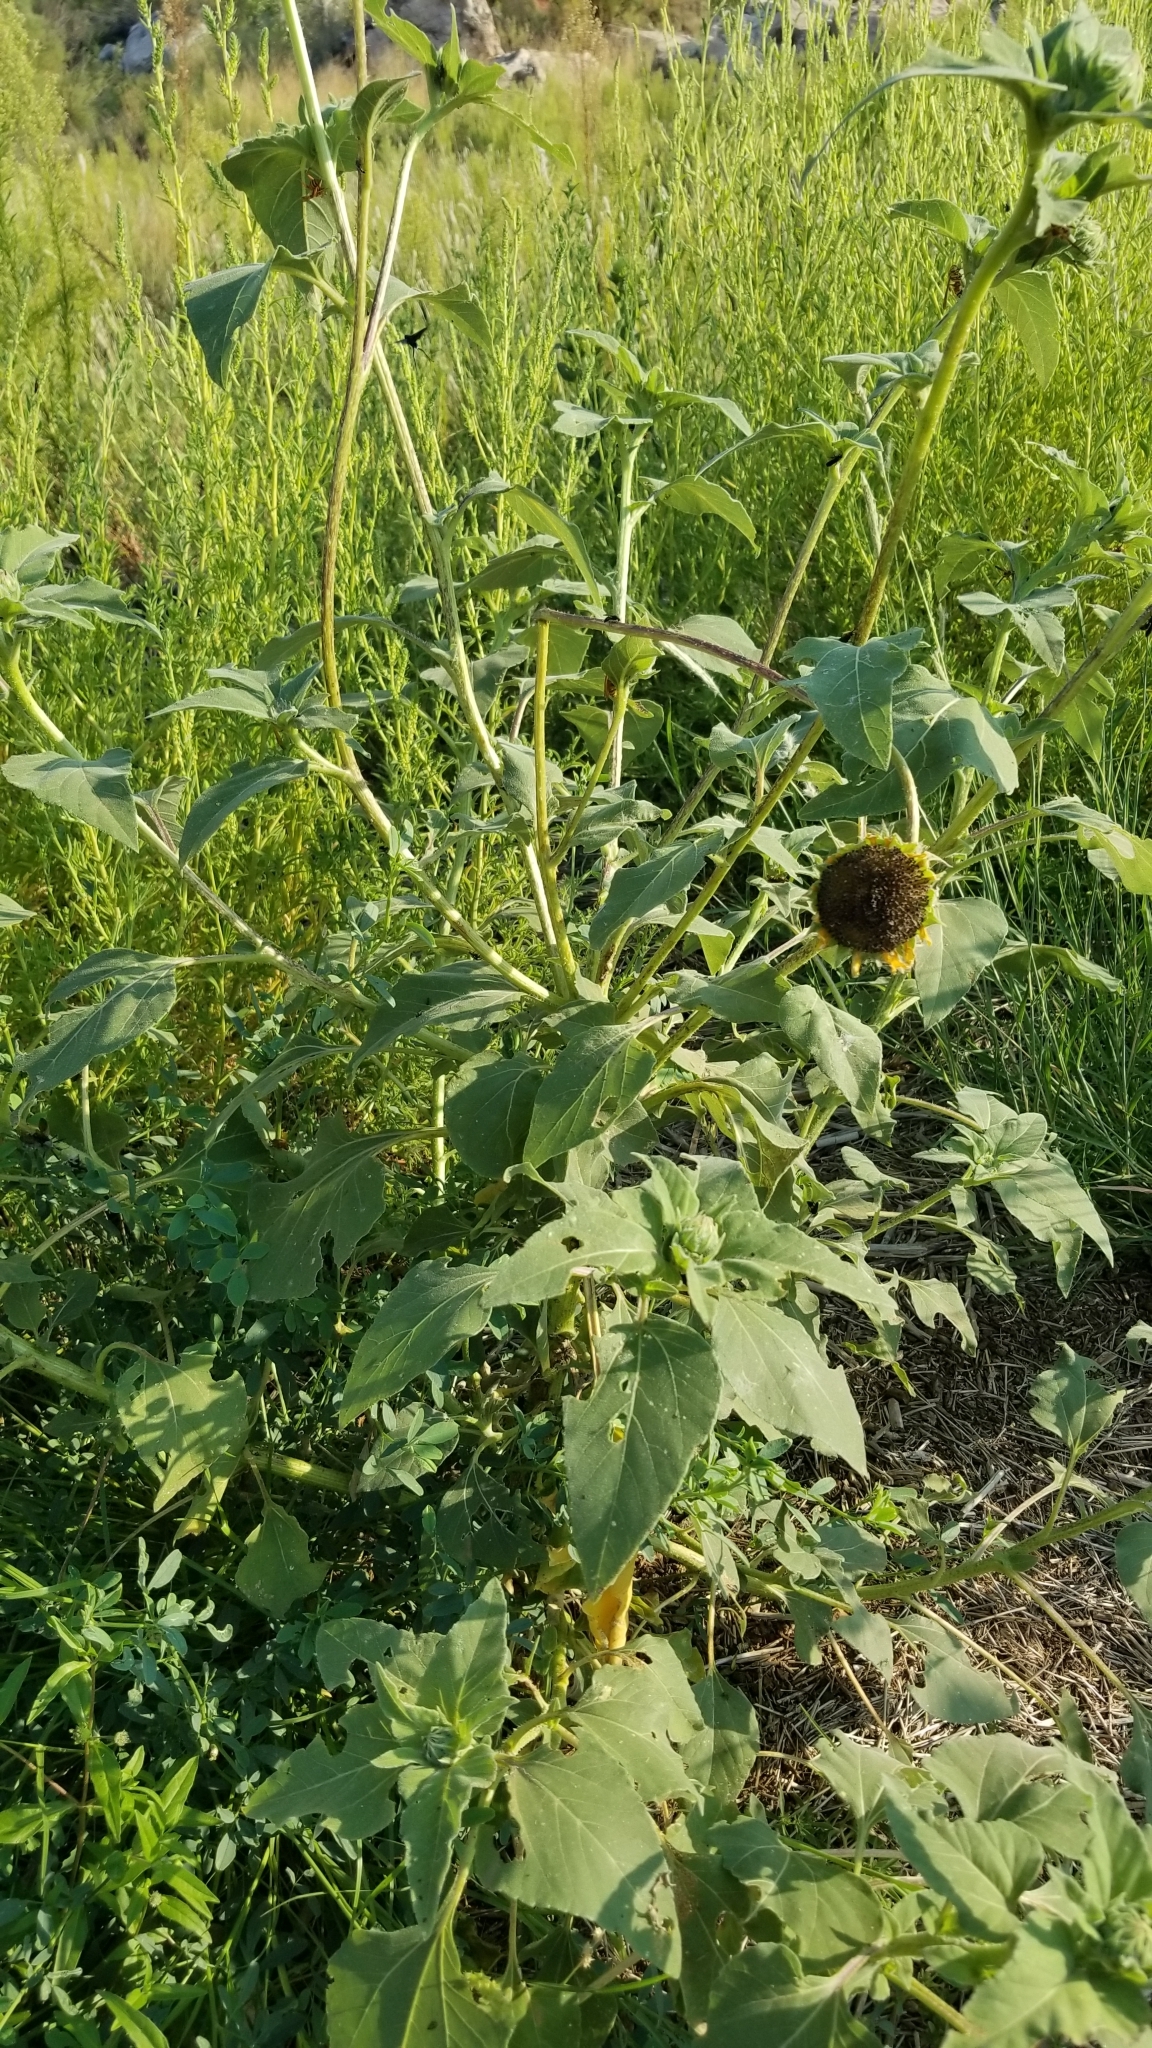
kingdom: Plantae
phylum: Tracheophyta
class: Magnoliopsida
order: Asterales
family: Asteraceae
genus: Helianthus
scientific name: Helianthus annuus
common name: Sunflower
